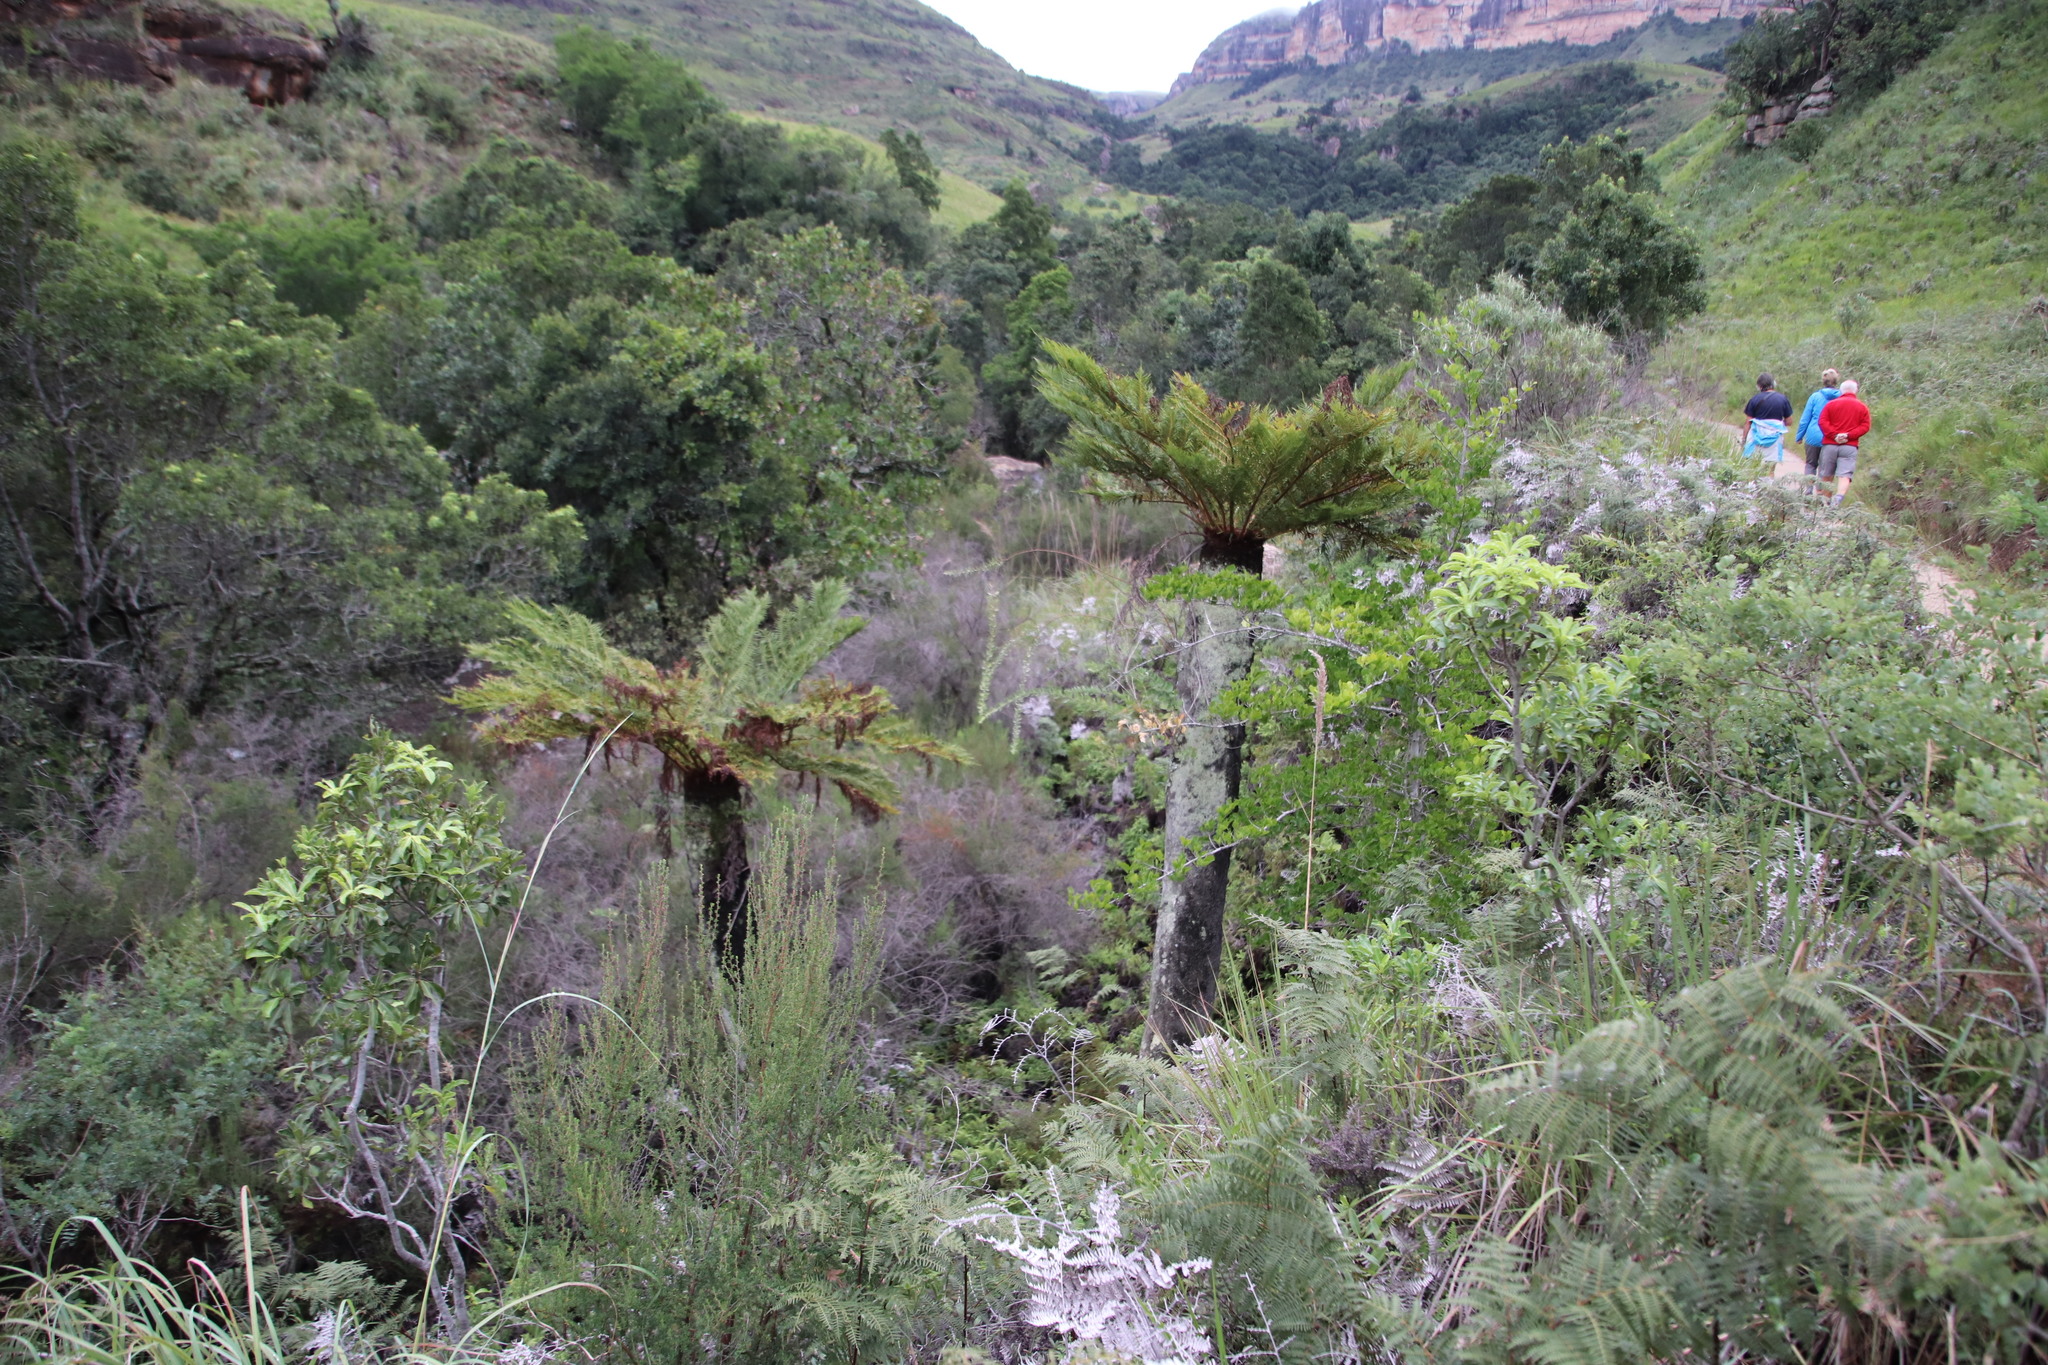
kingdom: Plantae
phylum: Tracheophyta
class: Polypodiopsida
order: Cyatheales
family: Cyatheaceae
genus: Alsophila
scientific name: Alsophila dregei
